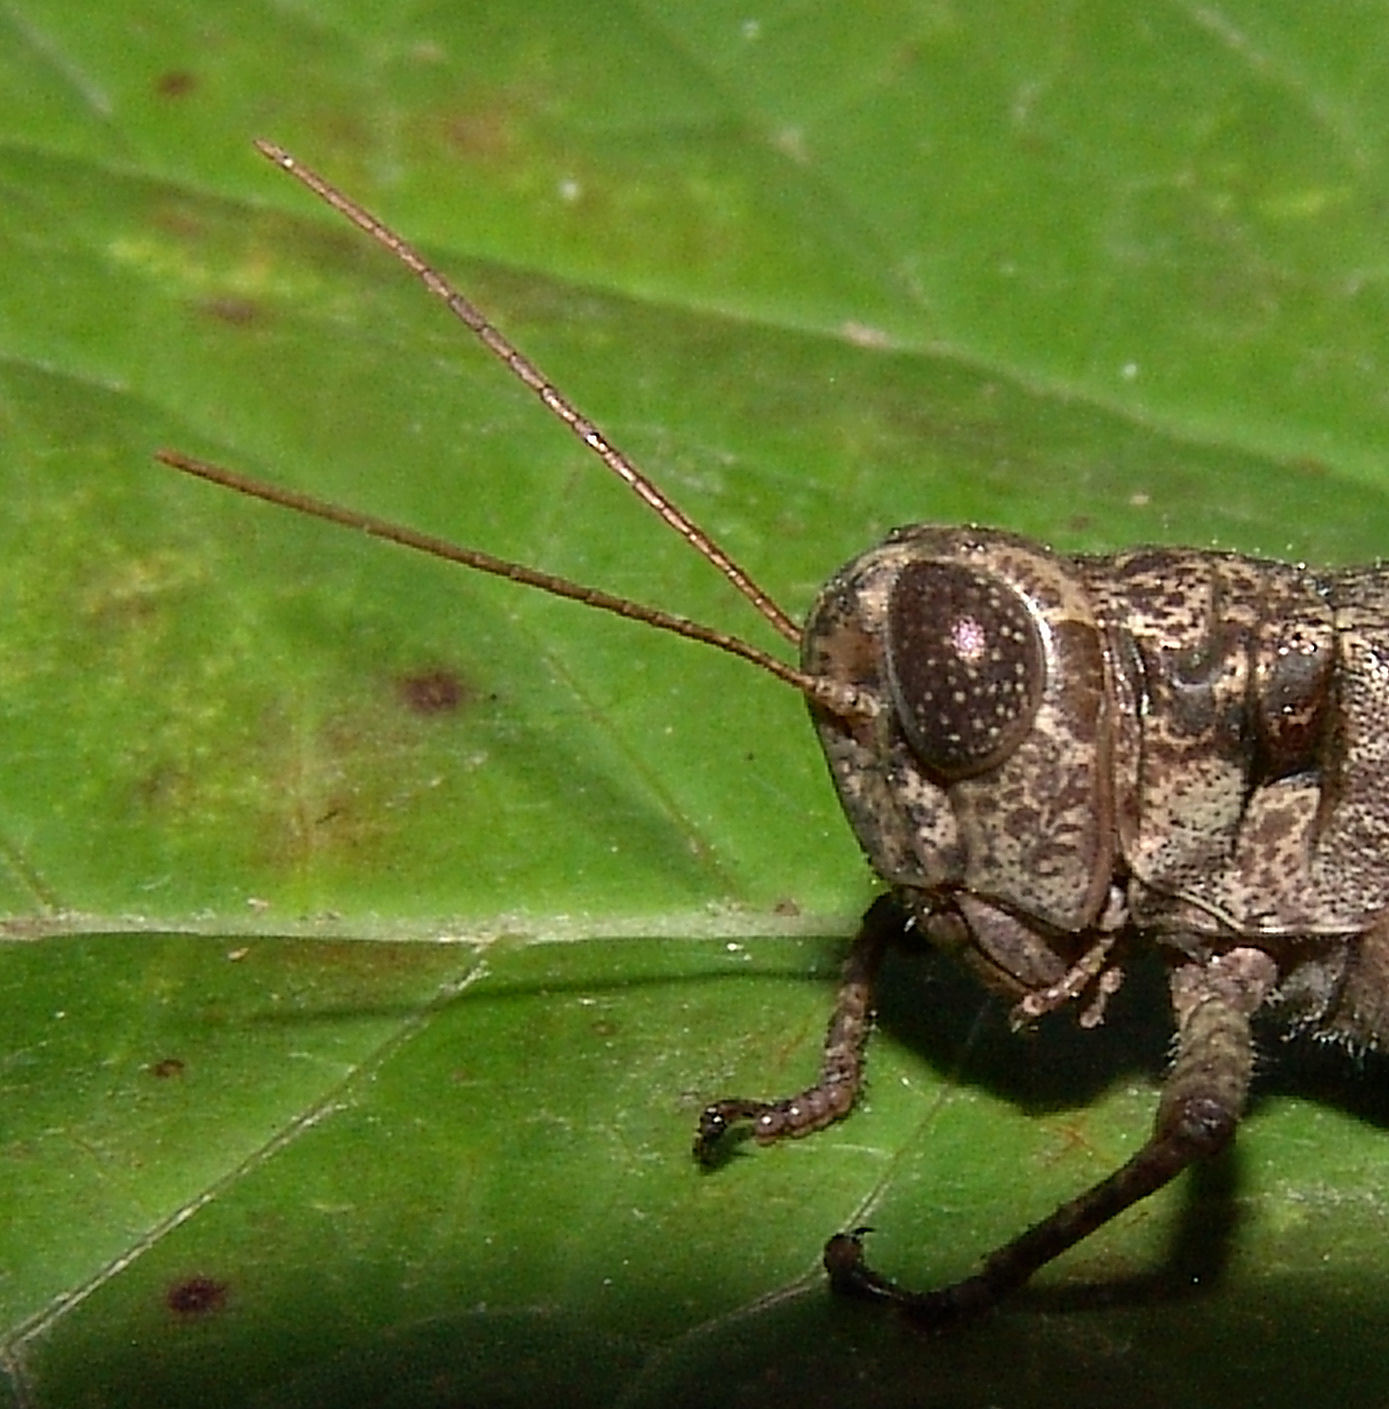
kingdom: Animalia
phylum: Arthropoda
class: Insecta
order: Orthoptera
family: Acrididae
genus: Melanoplus
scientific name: Melanoplus punctulatus
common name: Pine-tree spur-throat grasshopper
